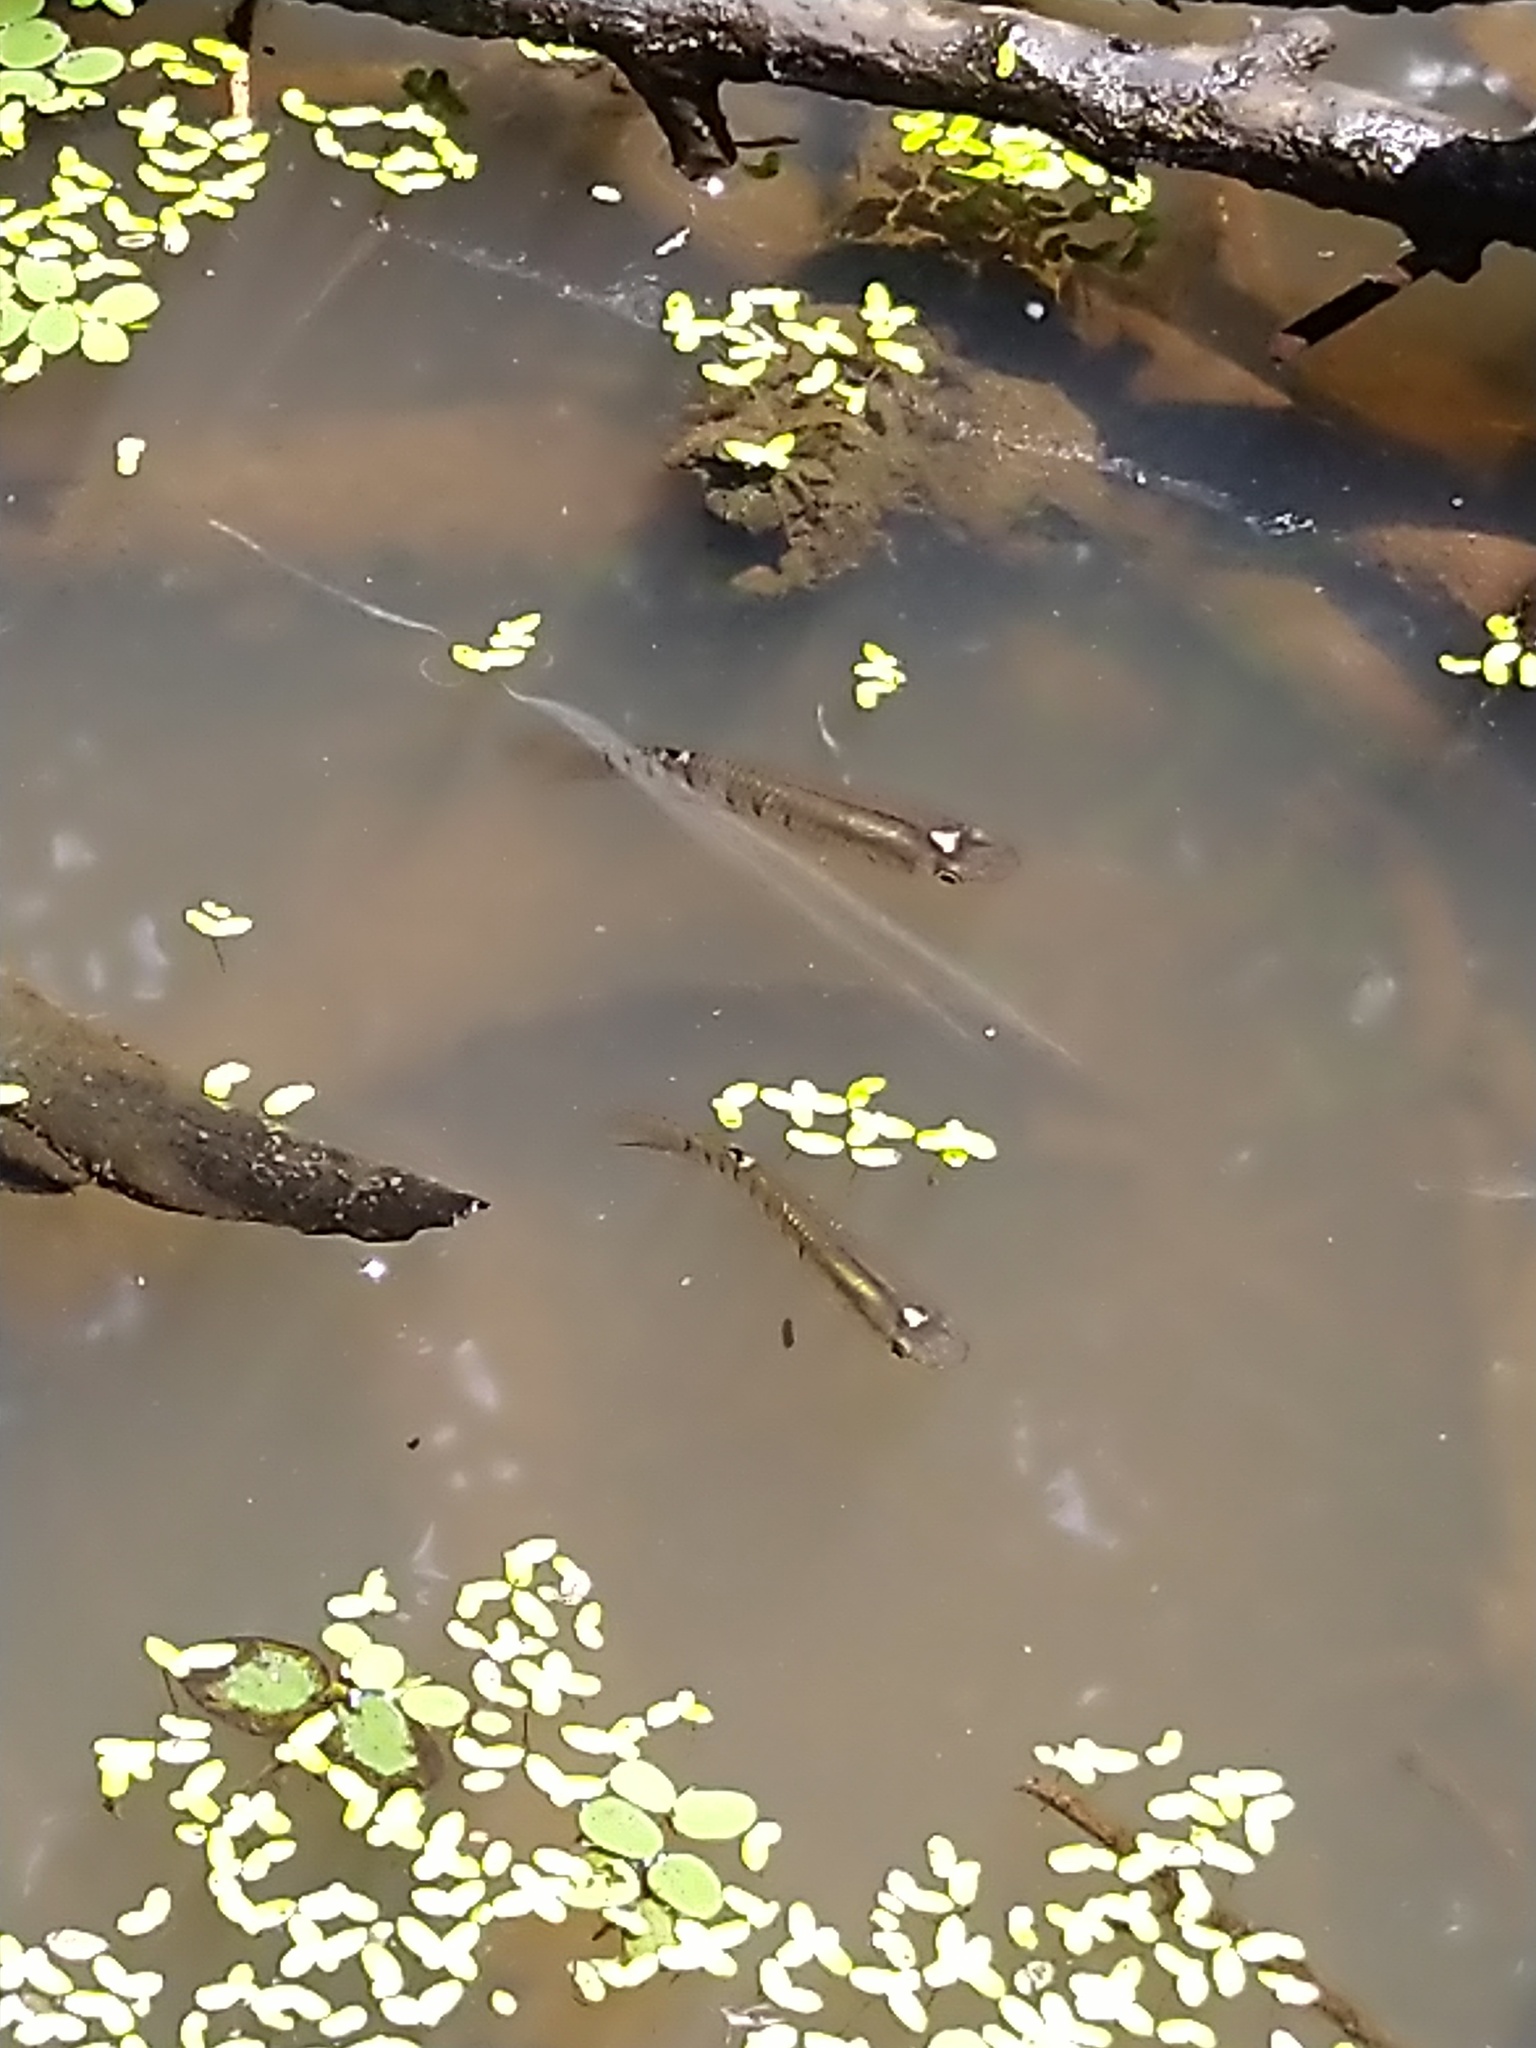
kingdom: Animalia
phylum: Chordata
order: Cyprinodontiformes
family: Aplocheilidae
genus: Aplocheilus
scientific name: Aplocheilus lineatus
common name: Striped panchax
